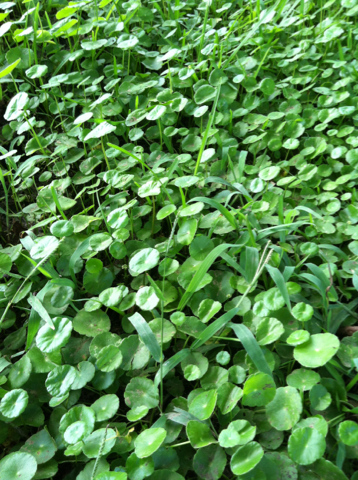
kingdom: Plantae
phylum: Tracheophyta
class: Magnoliopsida
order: Apiales
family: Araliaceae
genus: Hydrocotyle
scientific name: Hydrocotyle verticillata
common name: Whorled marshpennywort
